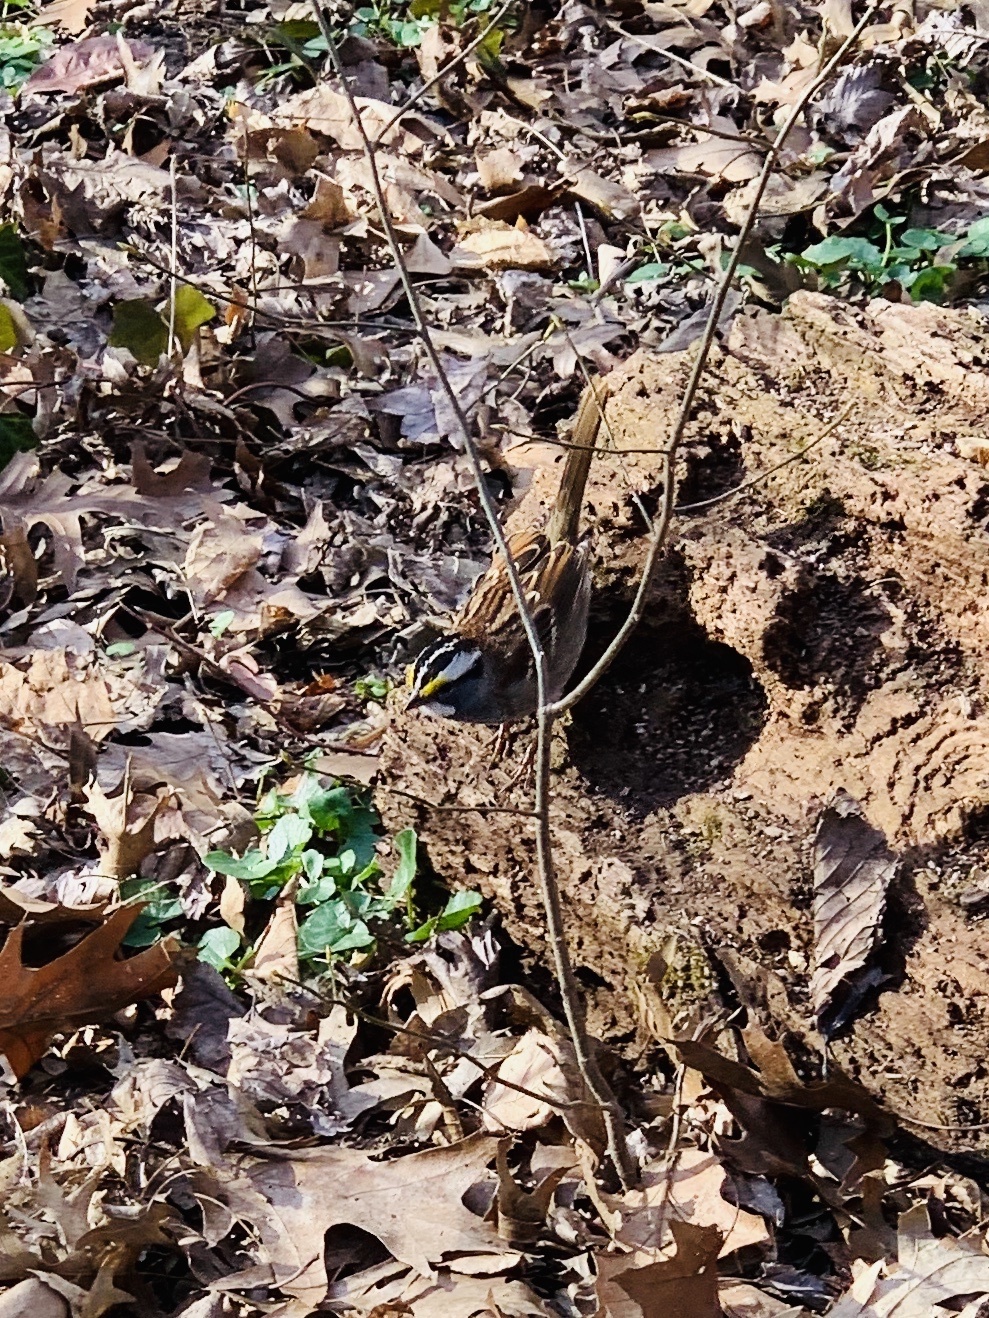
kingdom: Animalia
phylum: Chordata
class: Aves
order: Passeriformes
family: Passerellidae
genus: Zonotrichia
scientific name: Zonotrichia albicollis
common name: White-throated sparrow
